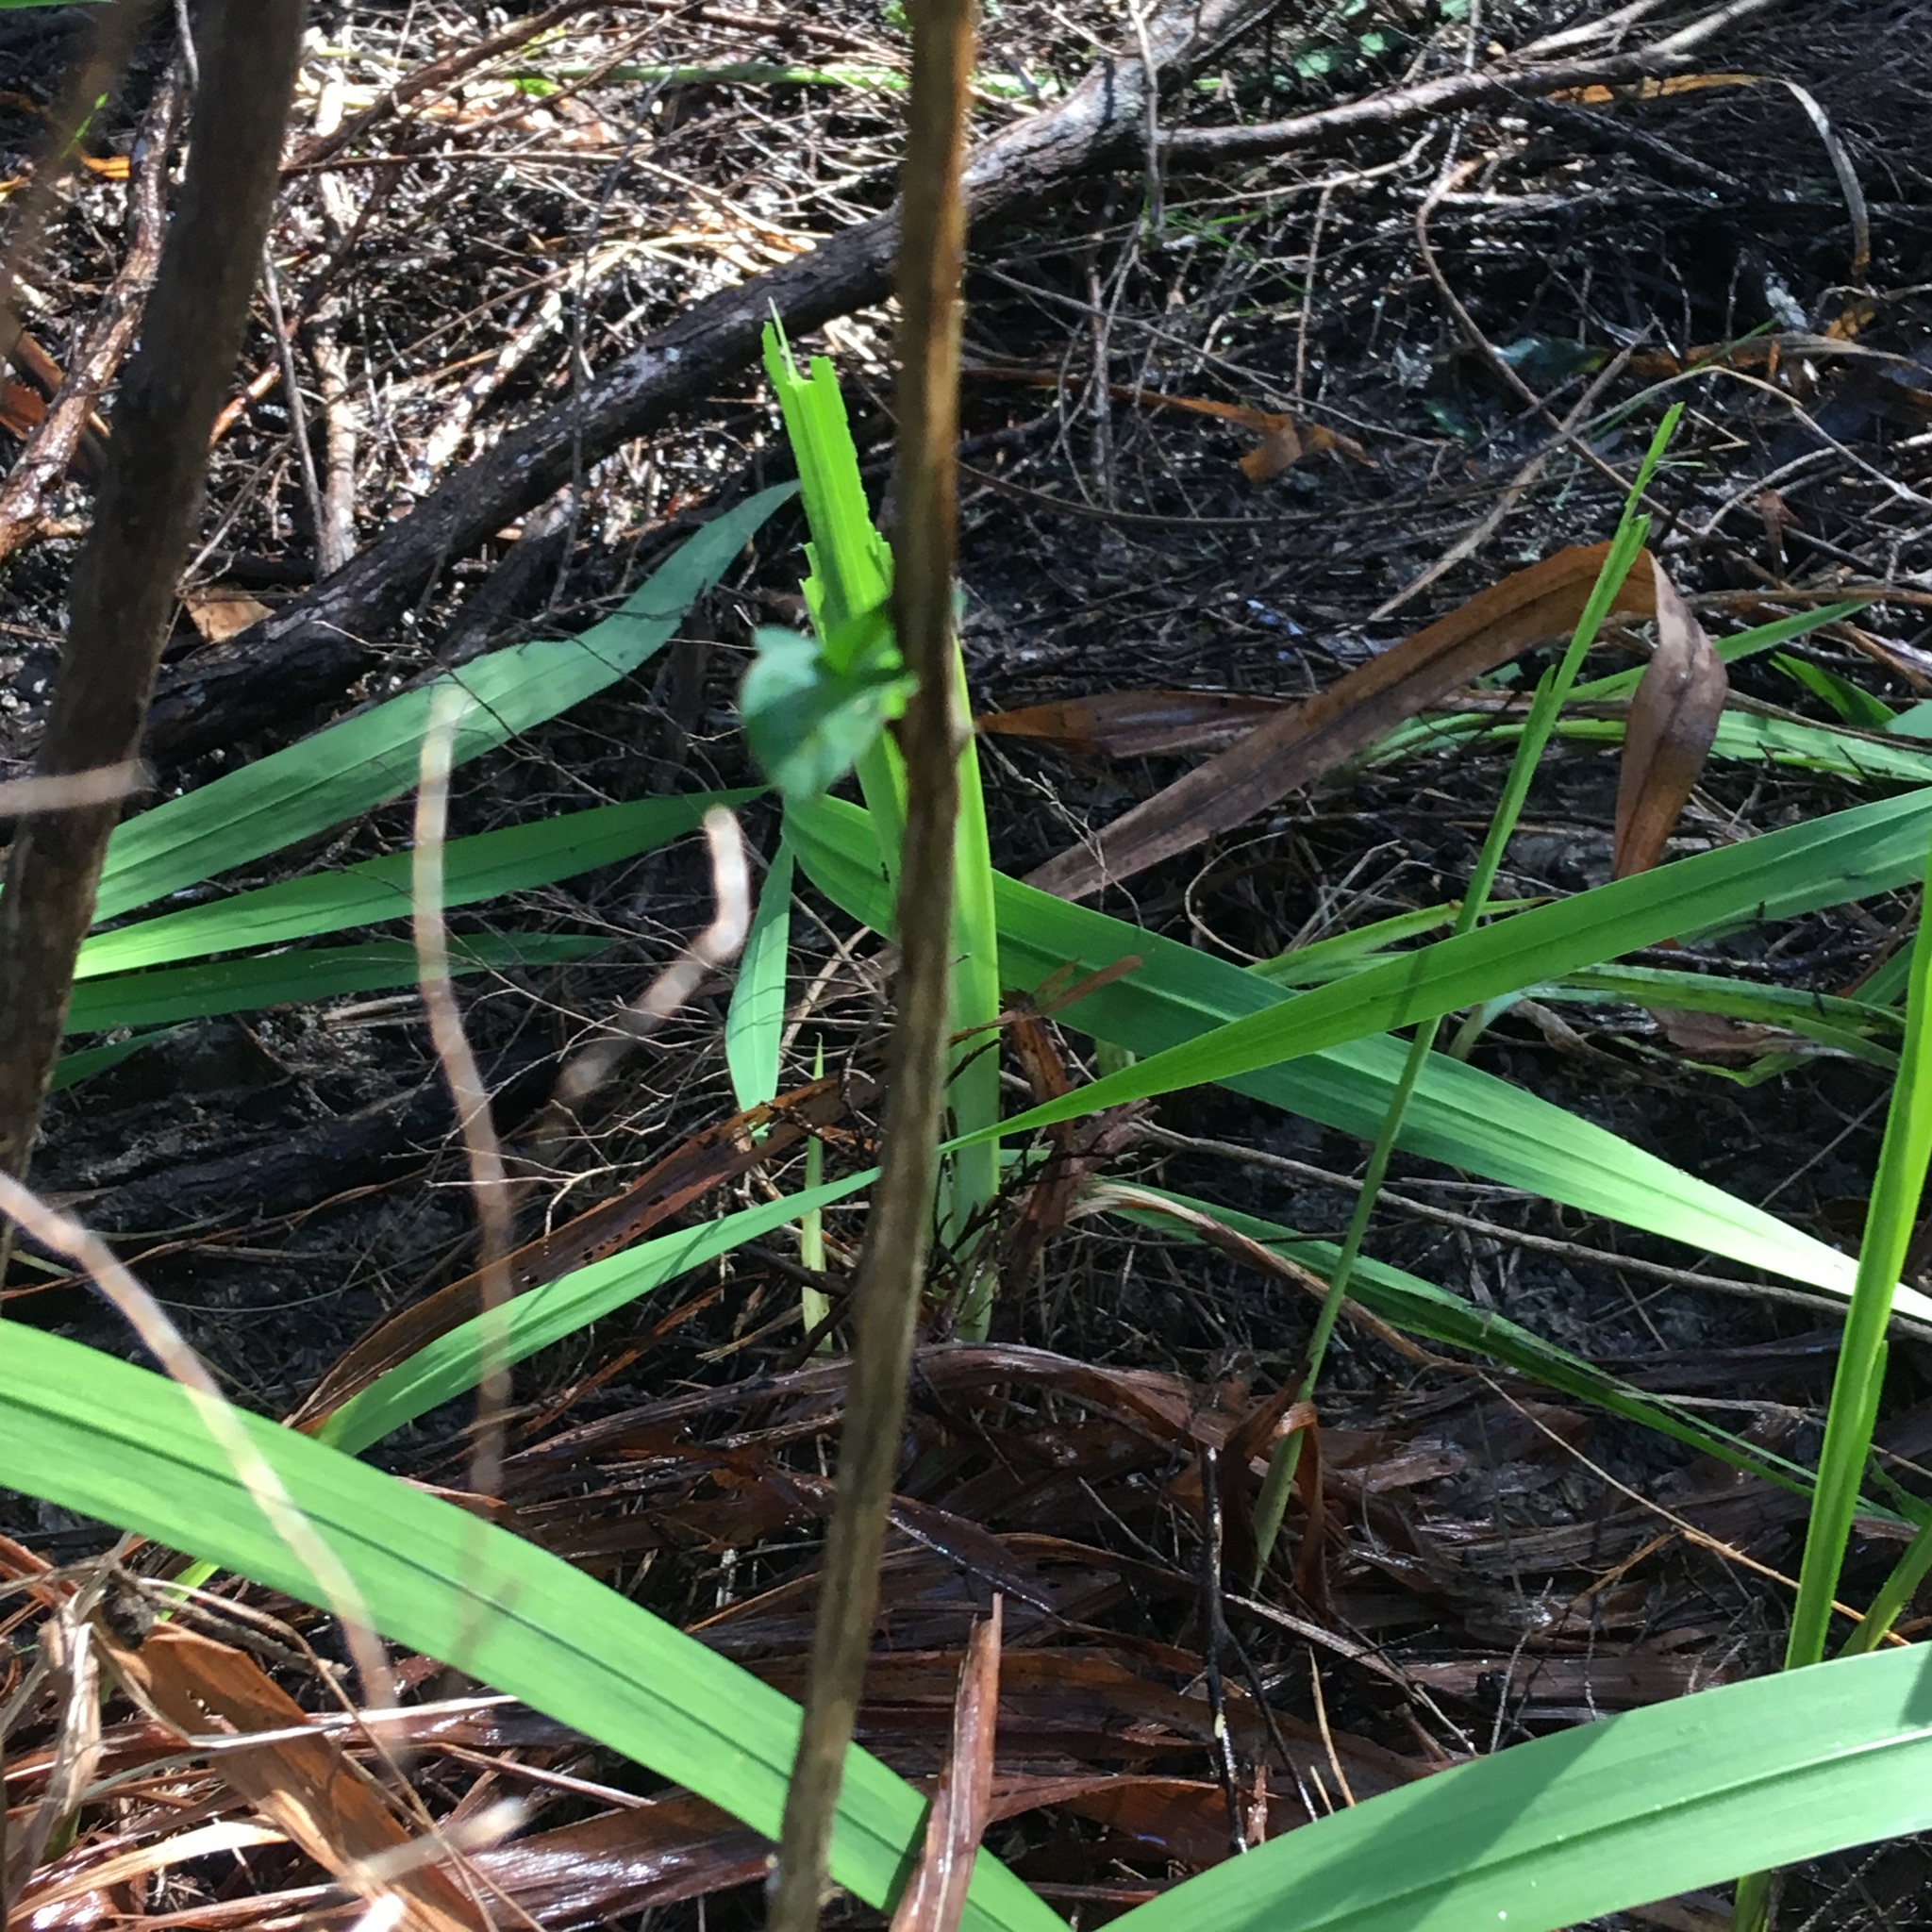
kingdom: Plantae
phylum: Tracheophyta
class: Magnoliopsida
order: Dipsacales
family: Caprifoliaceae
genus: Lonicera
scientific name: Lonicera japonica
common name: Japanese honeysuckle
